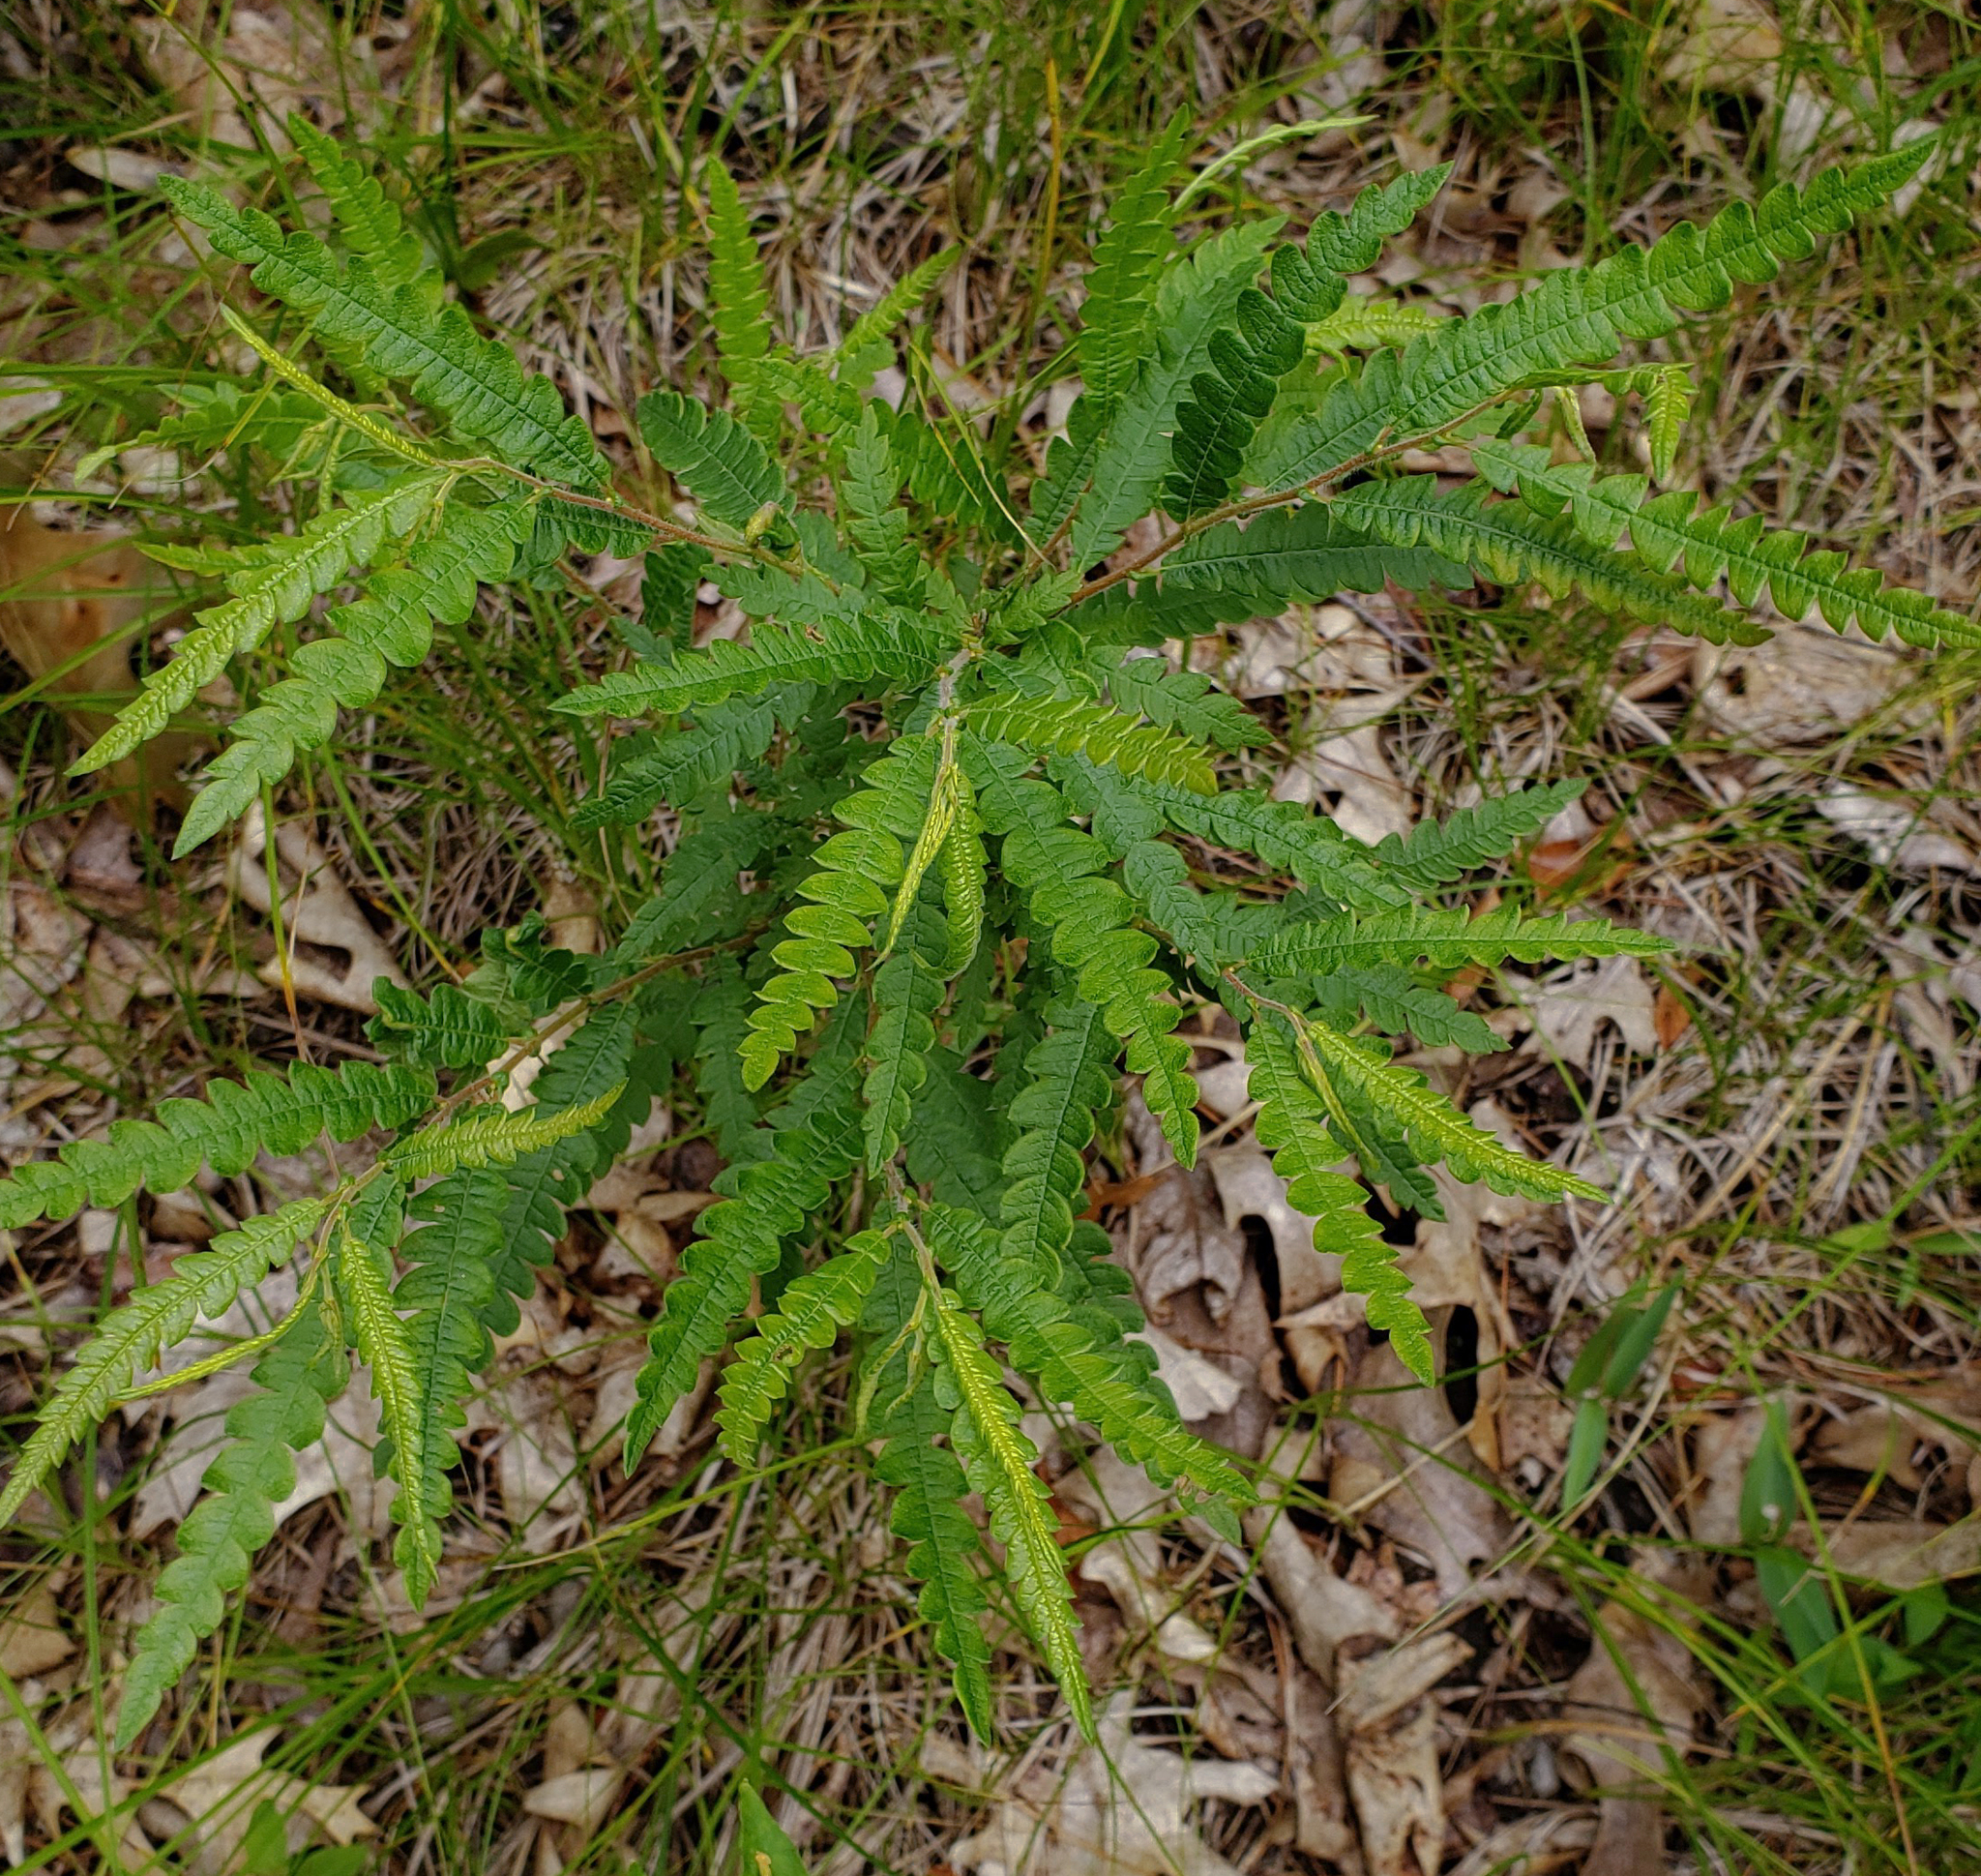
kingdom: Plantae
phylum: Tracheophyta
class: Magnoliopsida
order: Fagales
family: Myricaceae
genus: Comptonia
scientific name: Comptonia peregrina
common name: Sweet-fern
